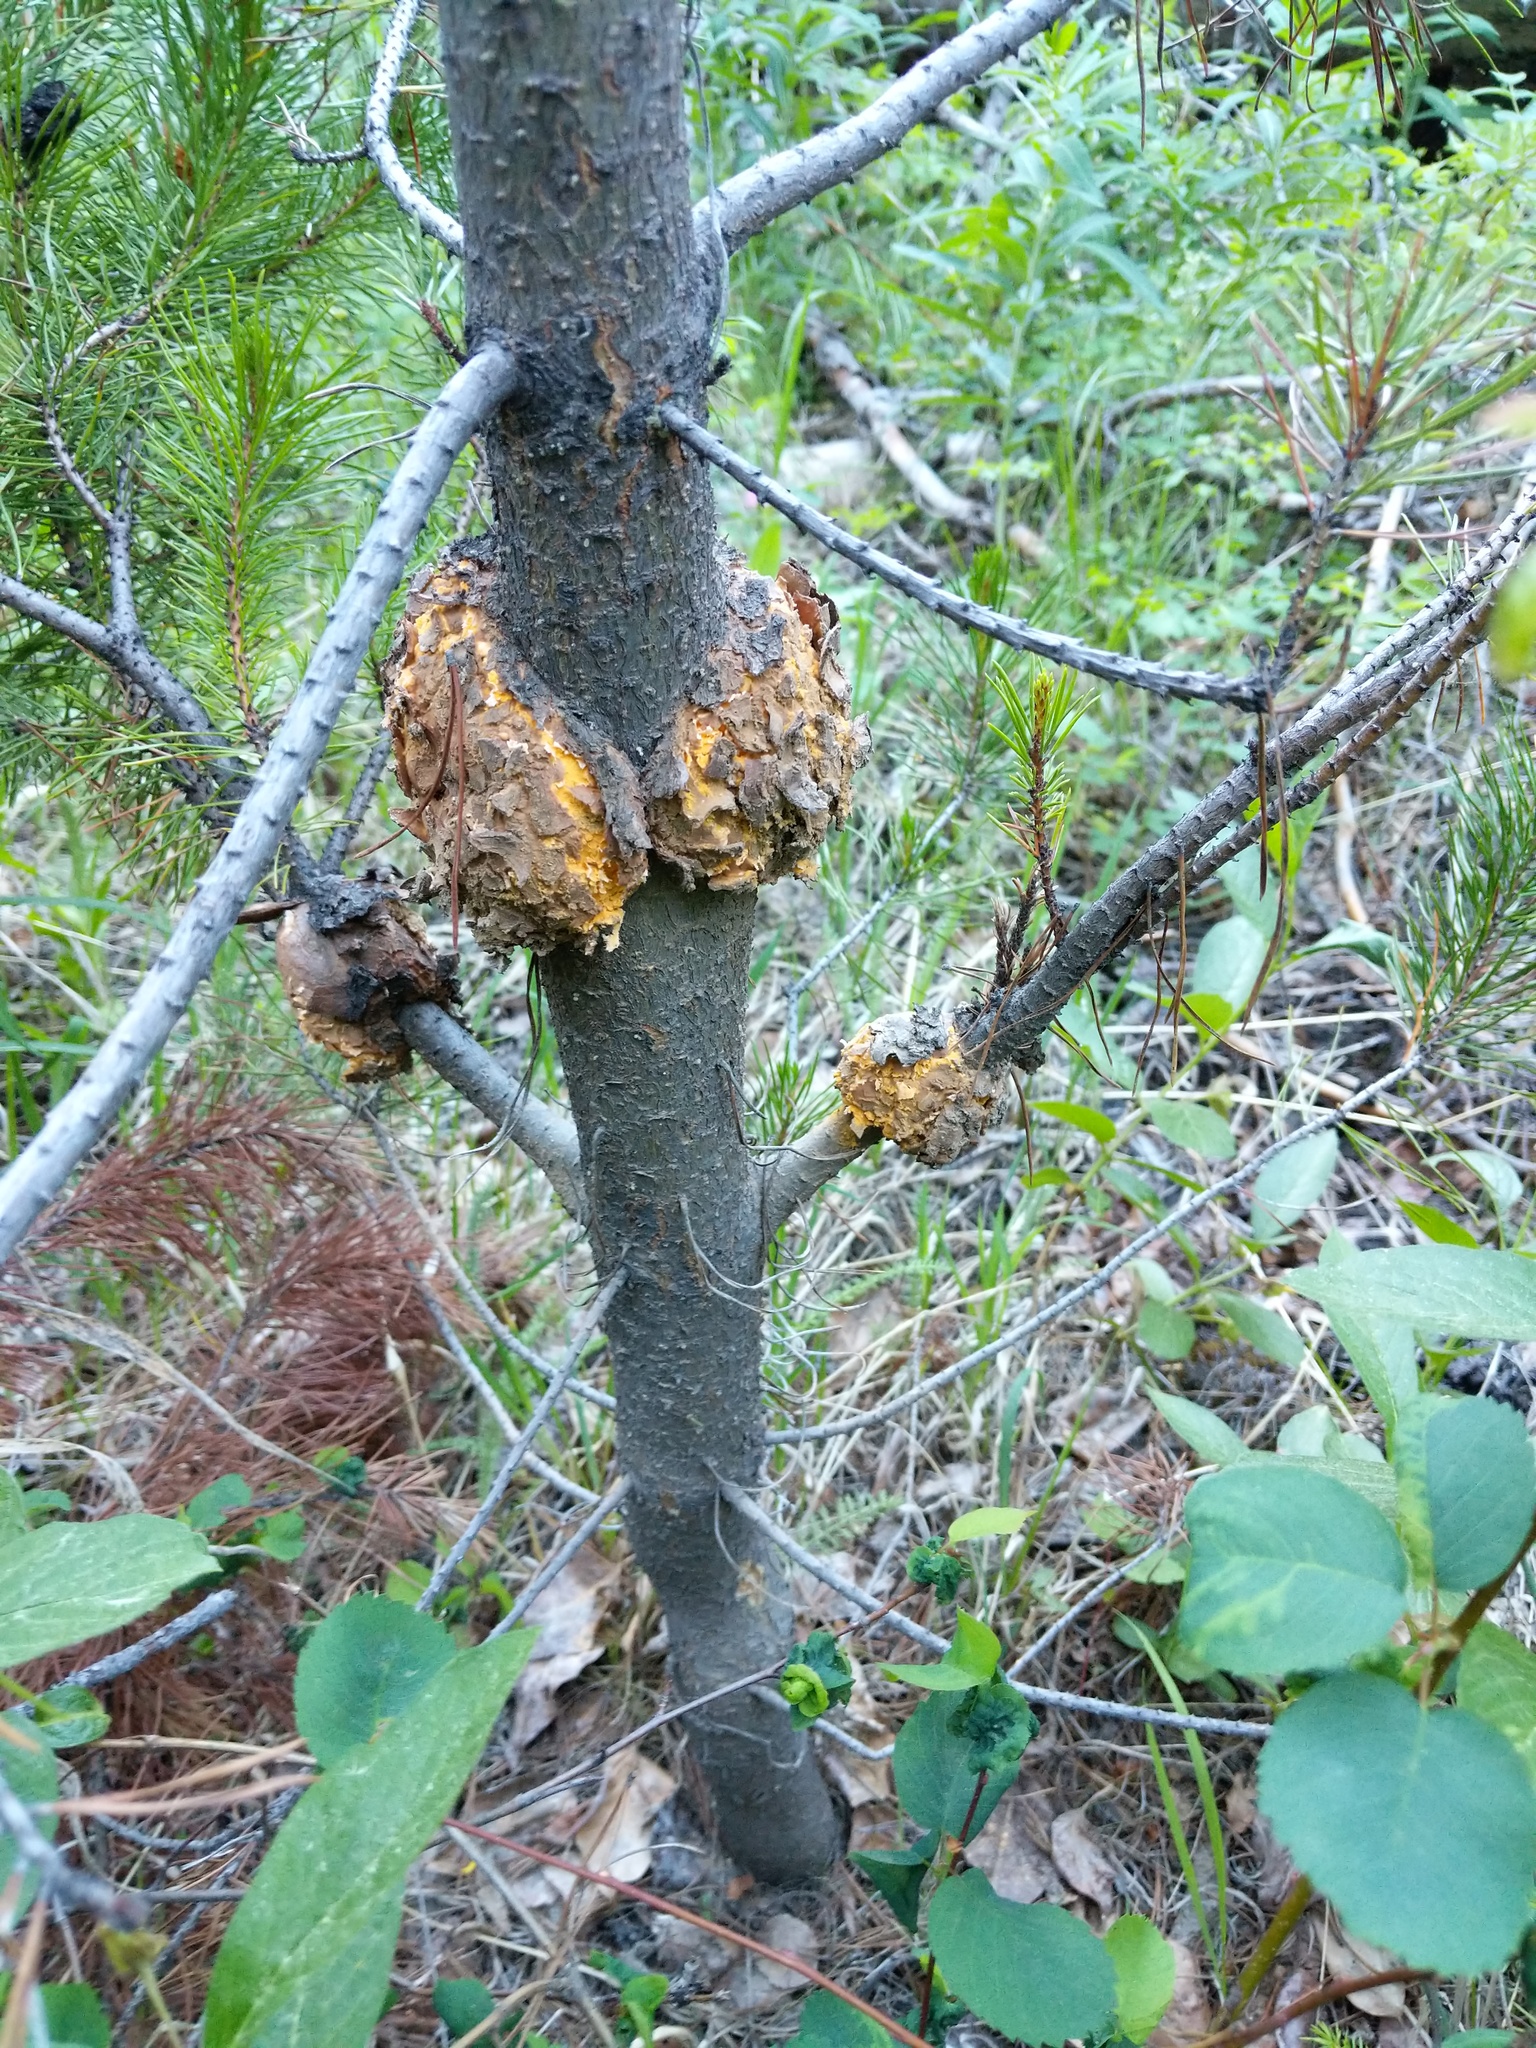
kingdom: Fungi
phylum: Basidiomycota
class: Pucciniomycetes
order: Pucciniales
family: Cronartiaceae
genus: Cronartium
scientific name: Cronartium harknessii
